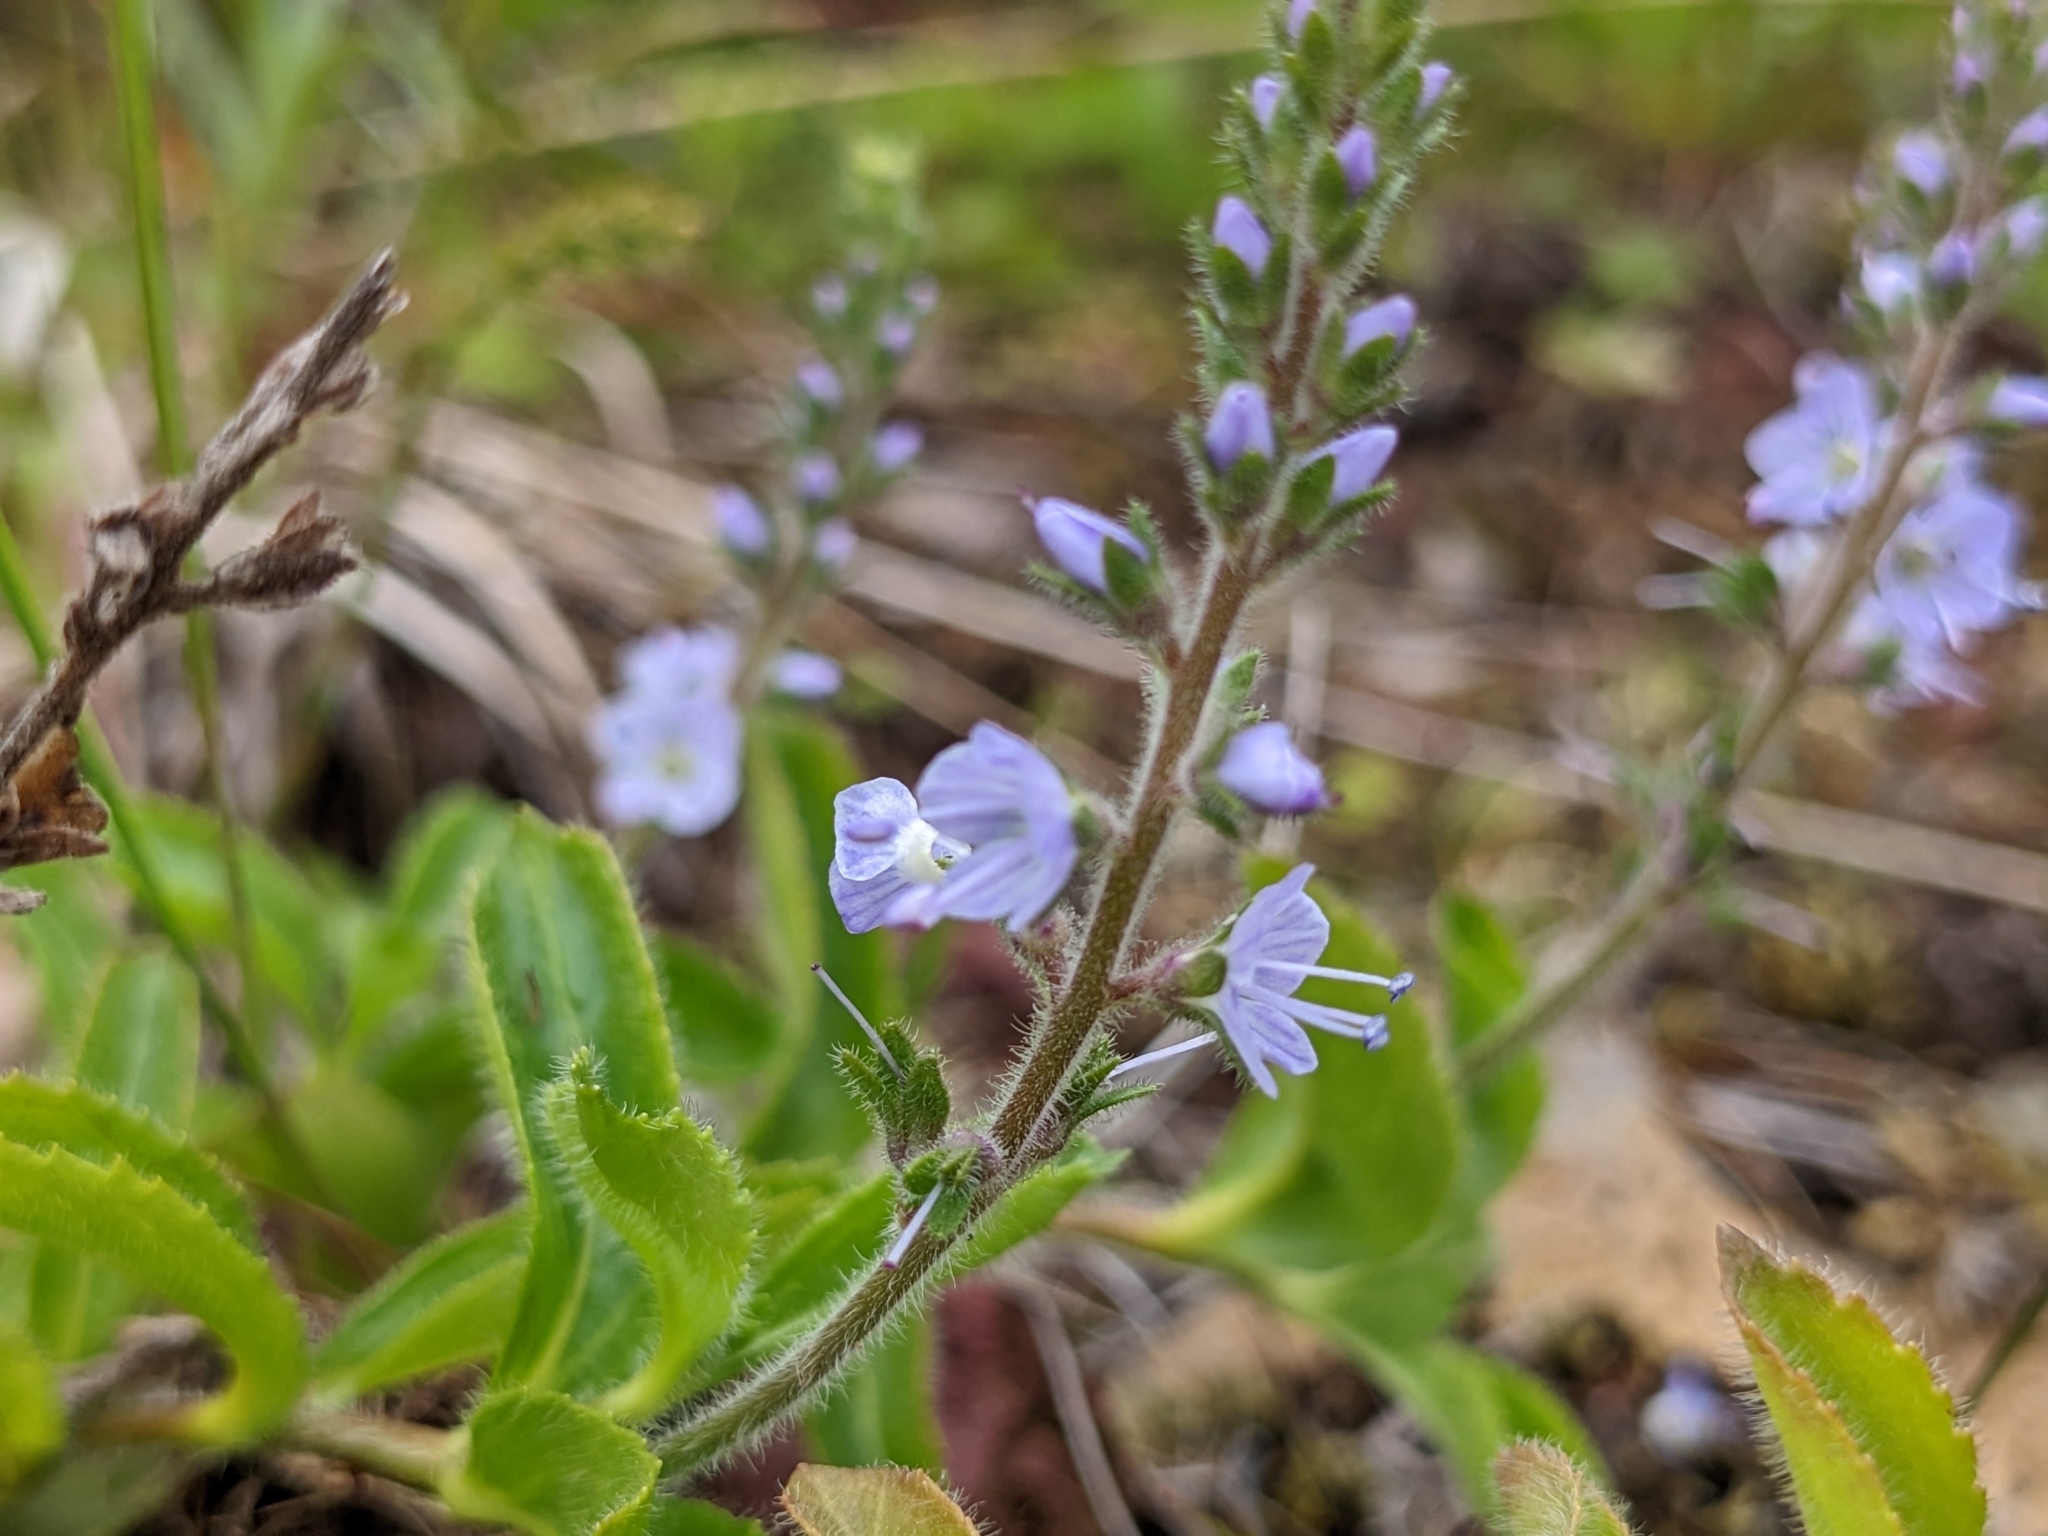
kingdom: Plantae
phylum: Tracheophyta
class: Magnoliopsida
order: Lamiales
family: Plantaginaceae
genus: Veronica
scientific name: Veronica officinalis
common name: Common speedwell
